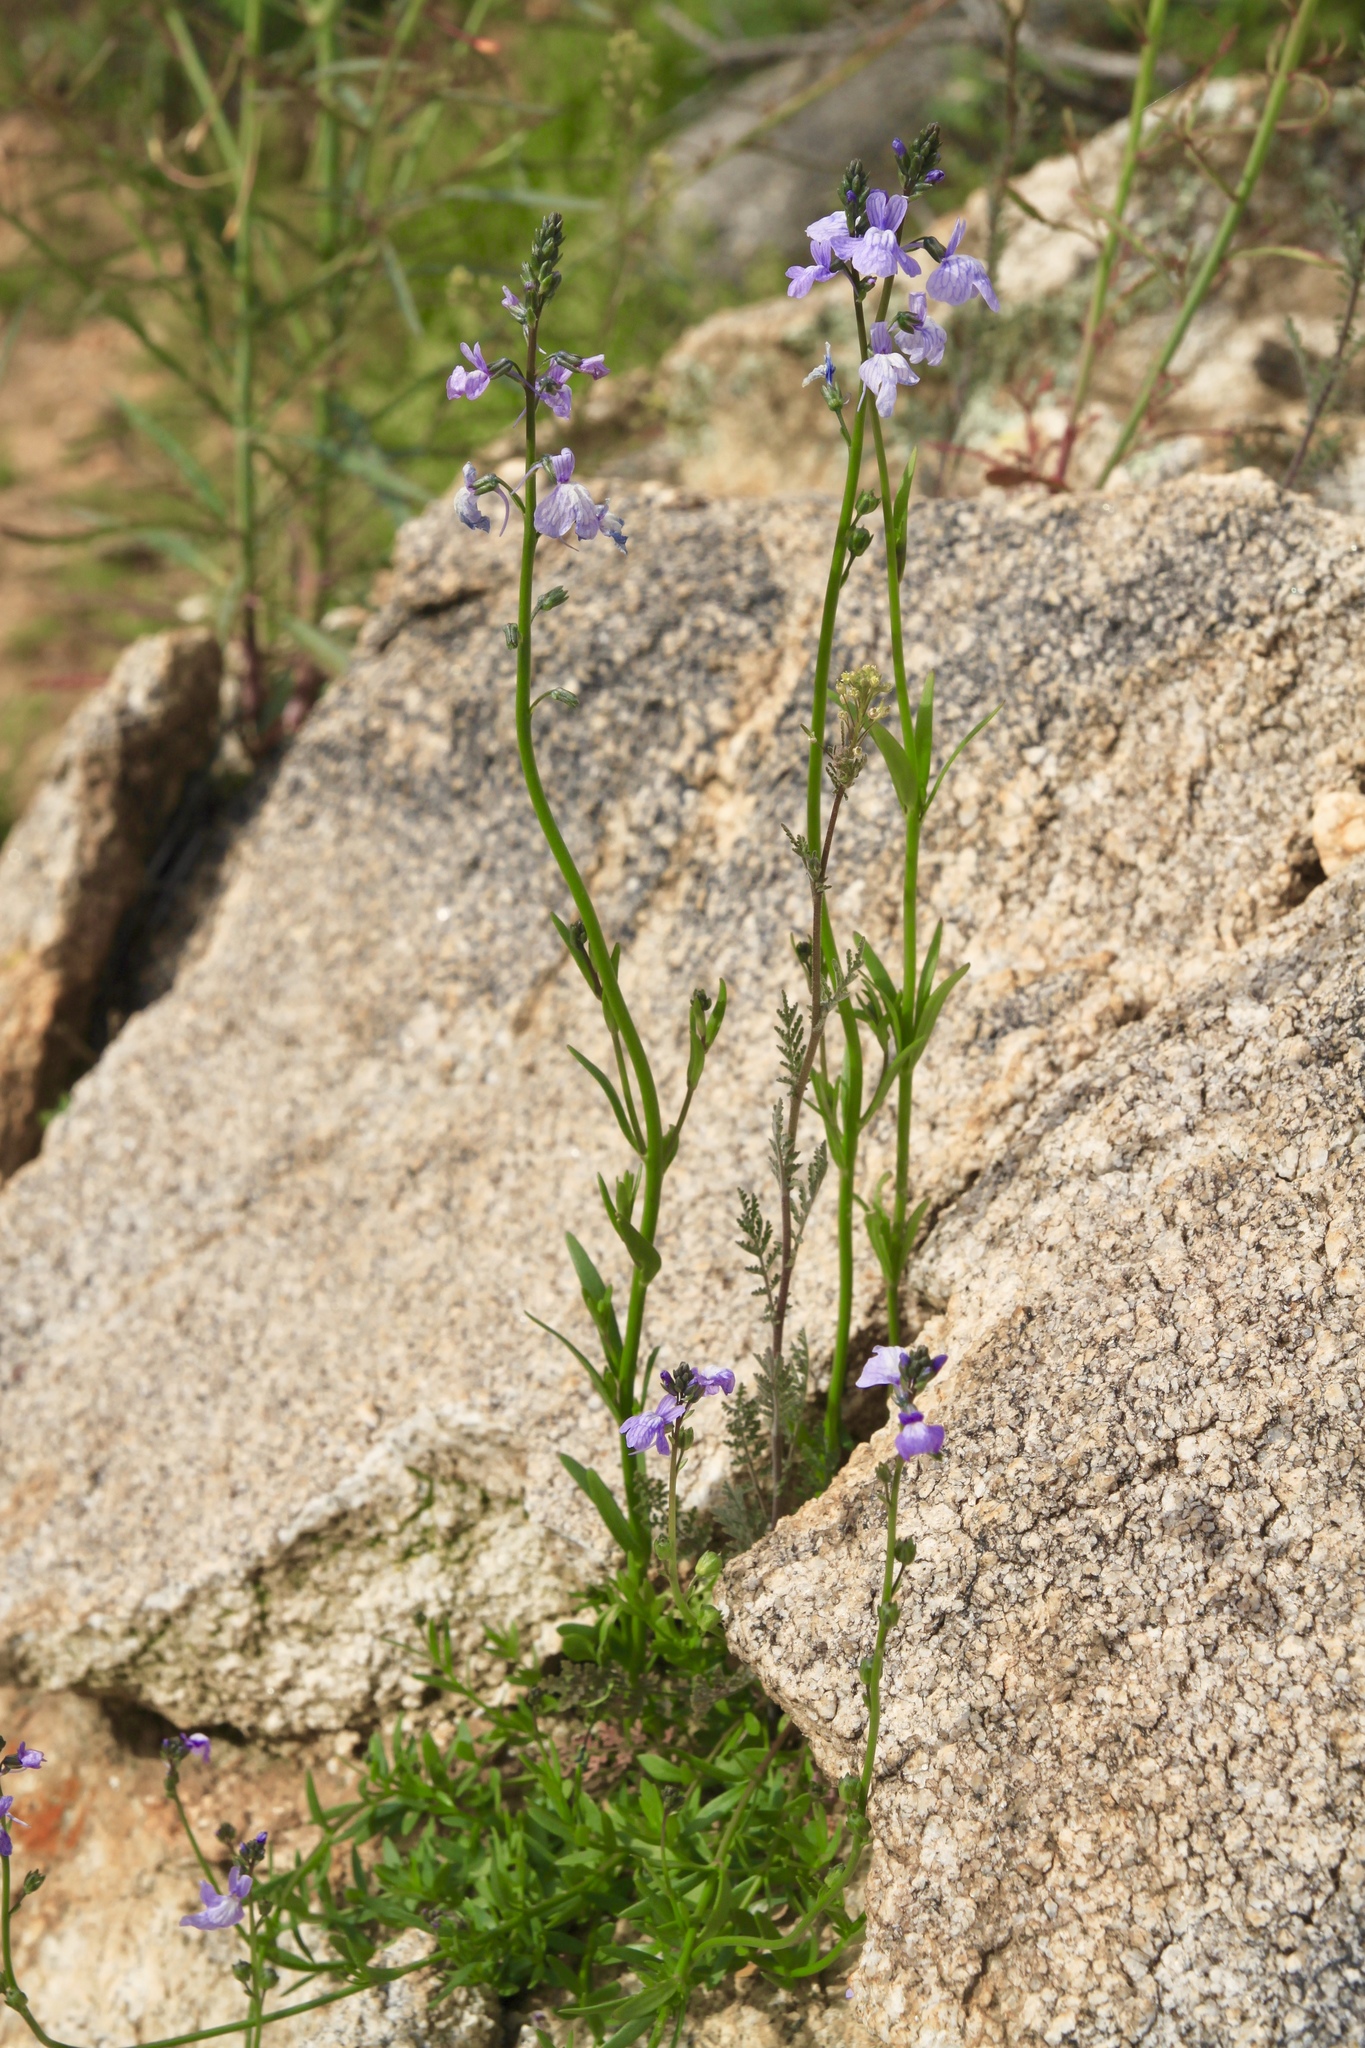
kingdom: Plantae
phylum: Tracheophyta
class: Magnoliopsida
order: Lamiales
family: Plantaginaceae
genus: Nuttallanthus
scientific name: Nuttallanthus texanus
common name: Texas toadflax
